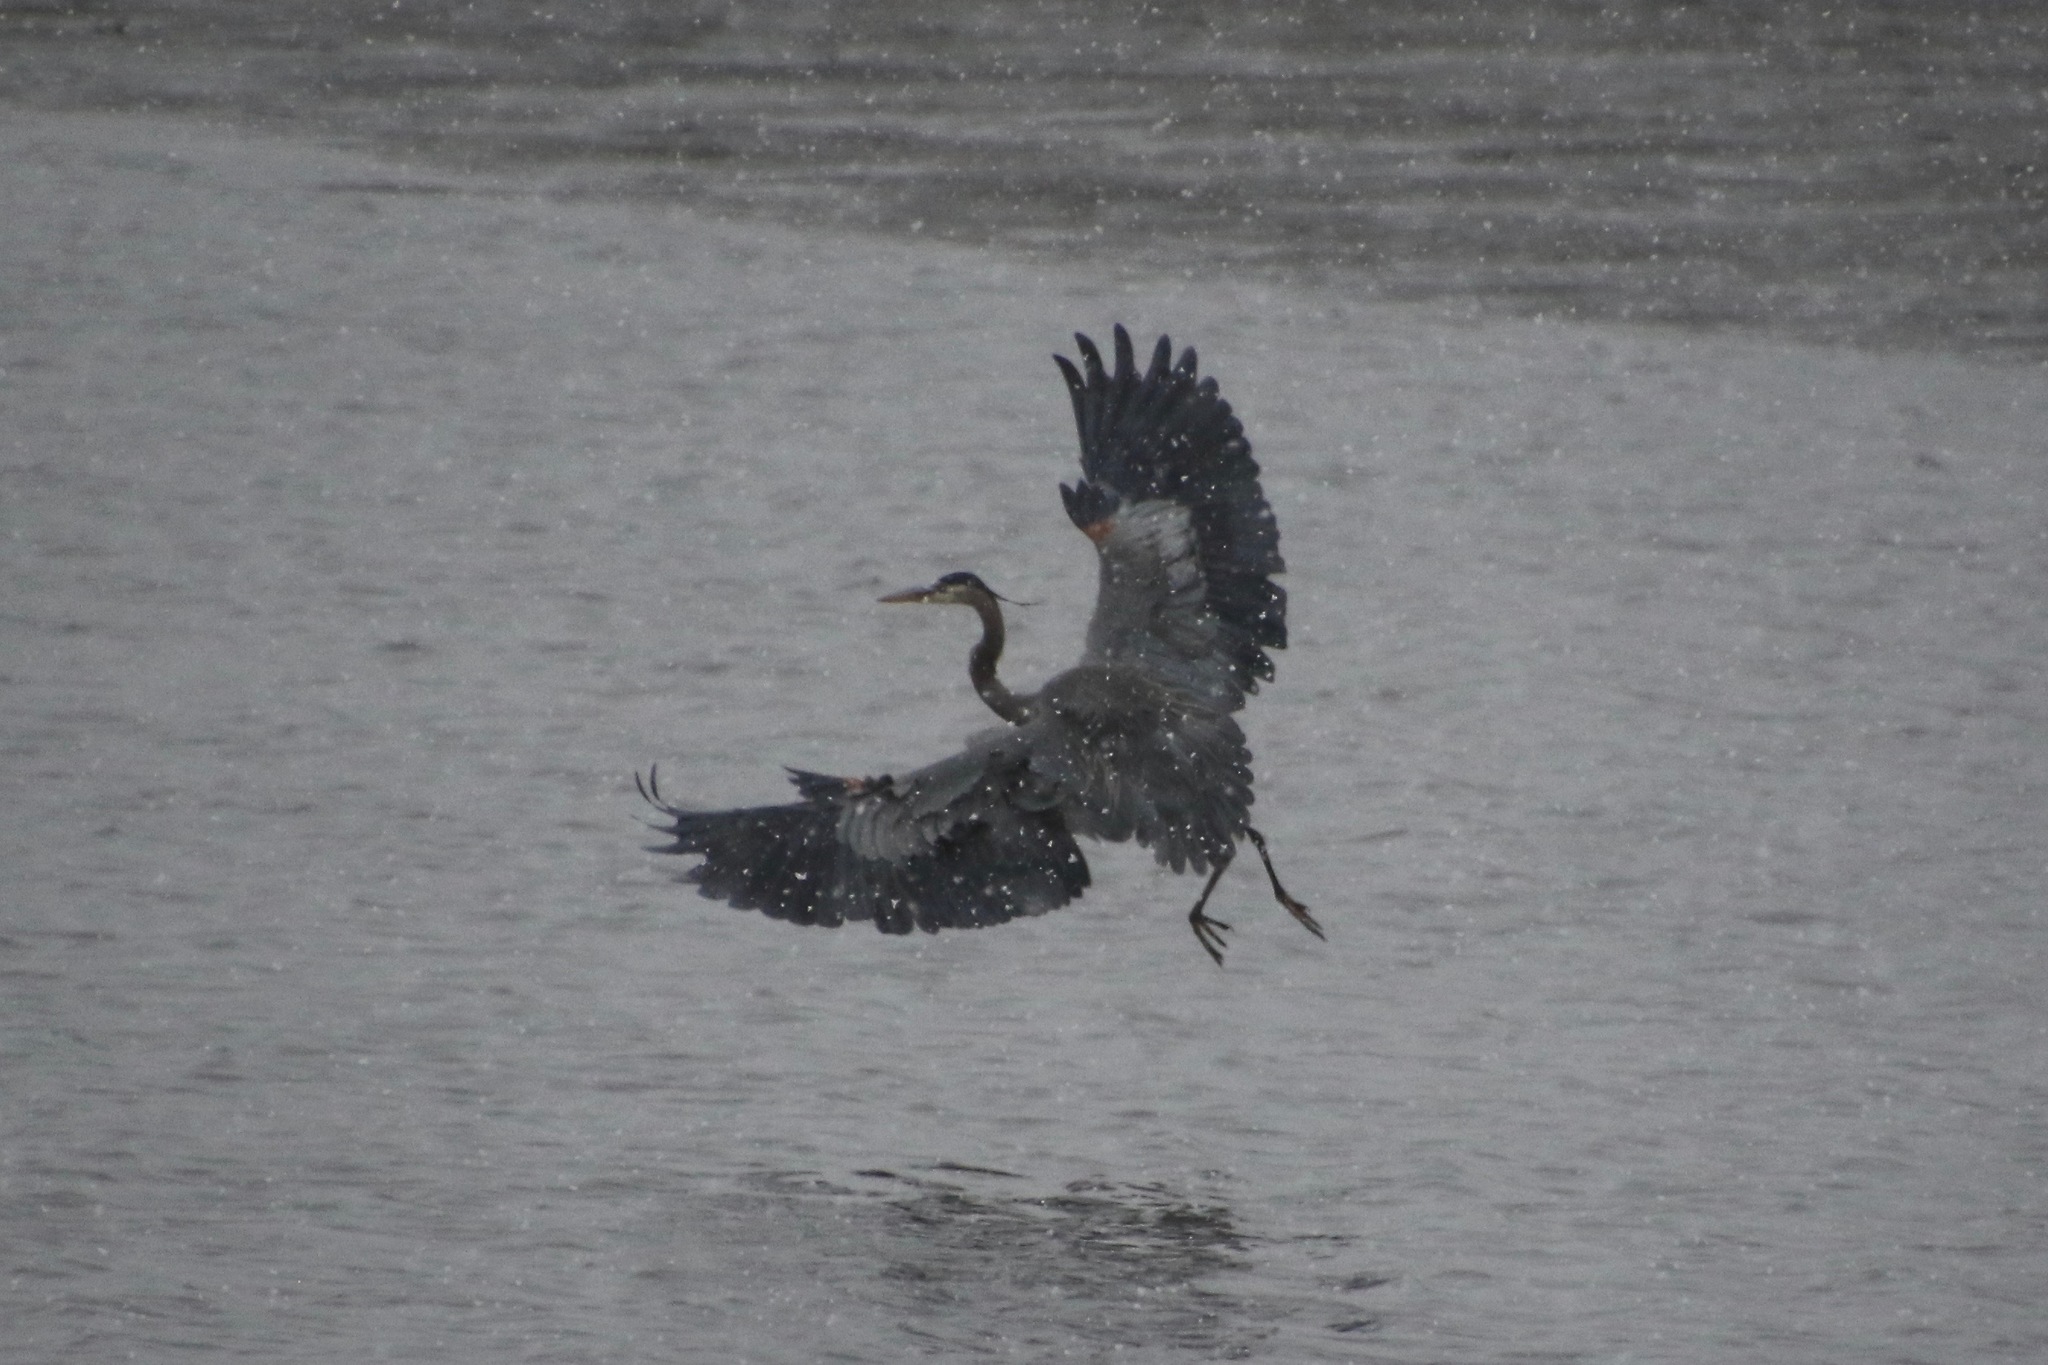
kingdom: Animalia
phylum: Chordata
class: Aves
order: Pelecaniformes
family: Ardeidae
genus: Ardea
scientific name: Ardea herodias
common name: Great blue heron
